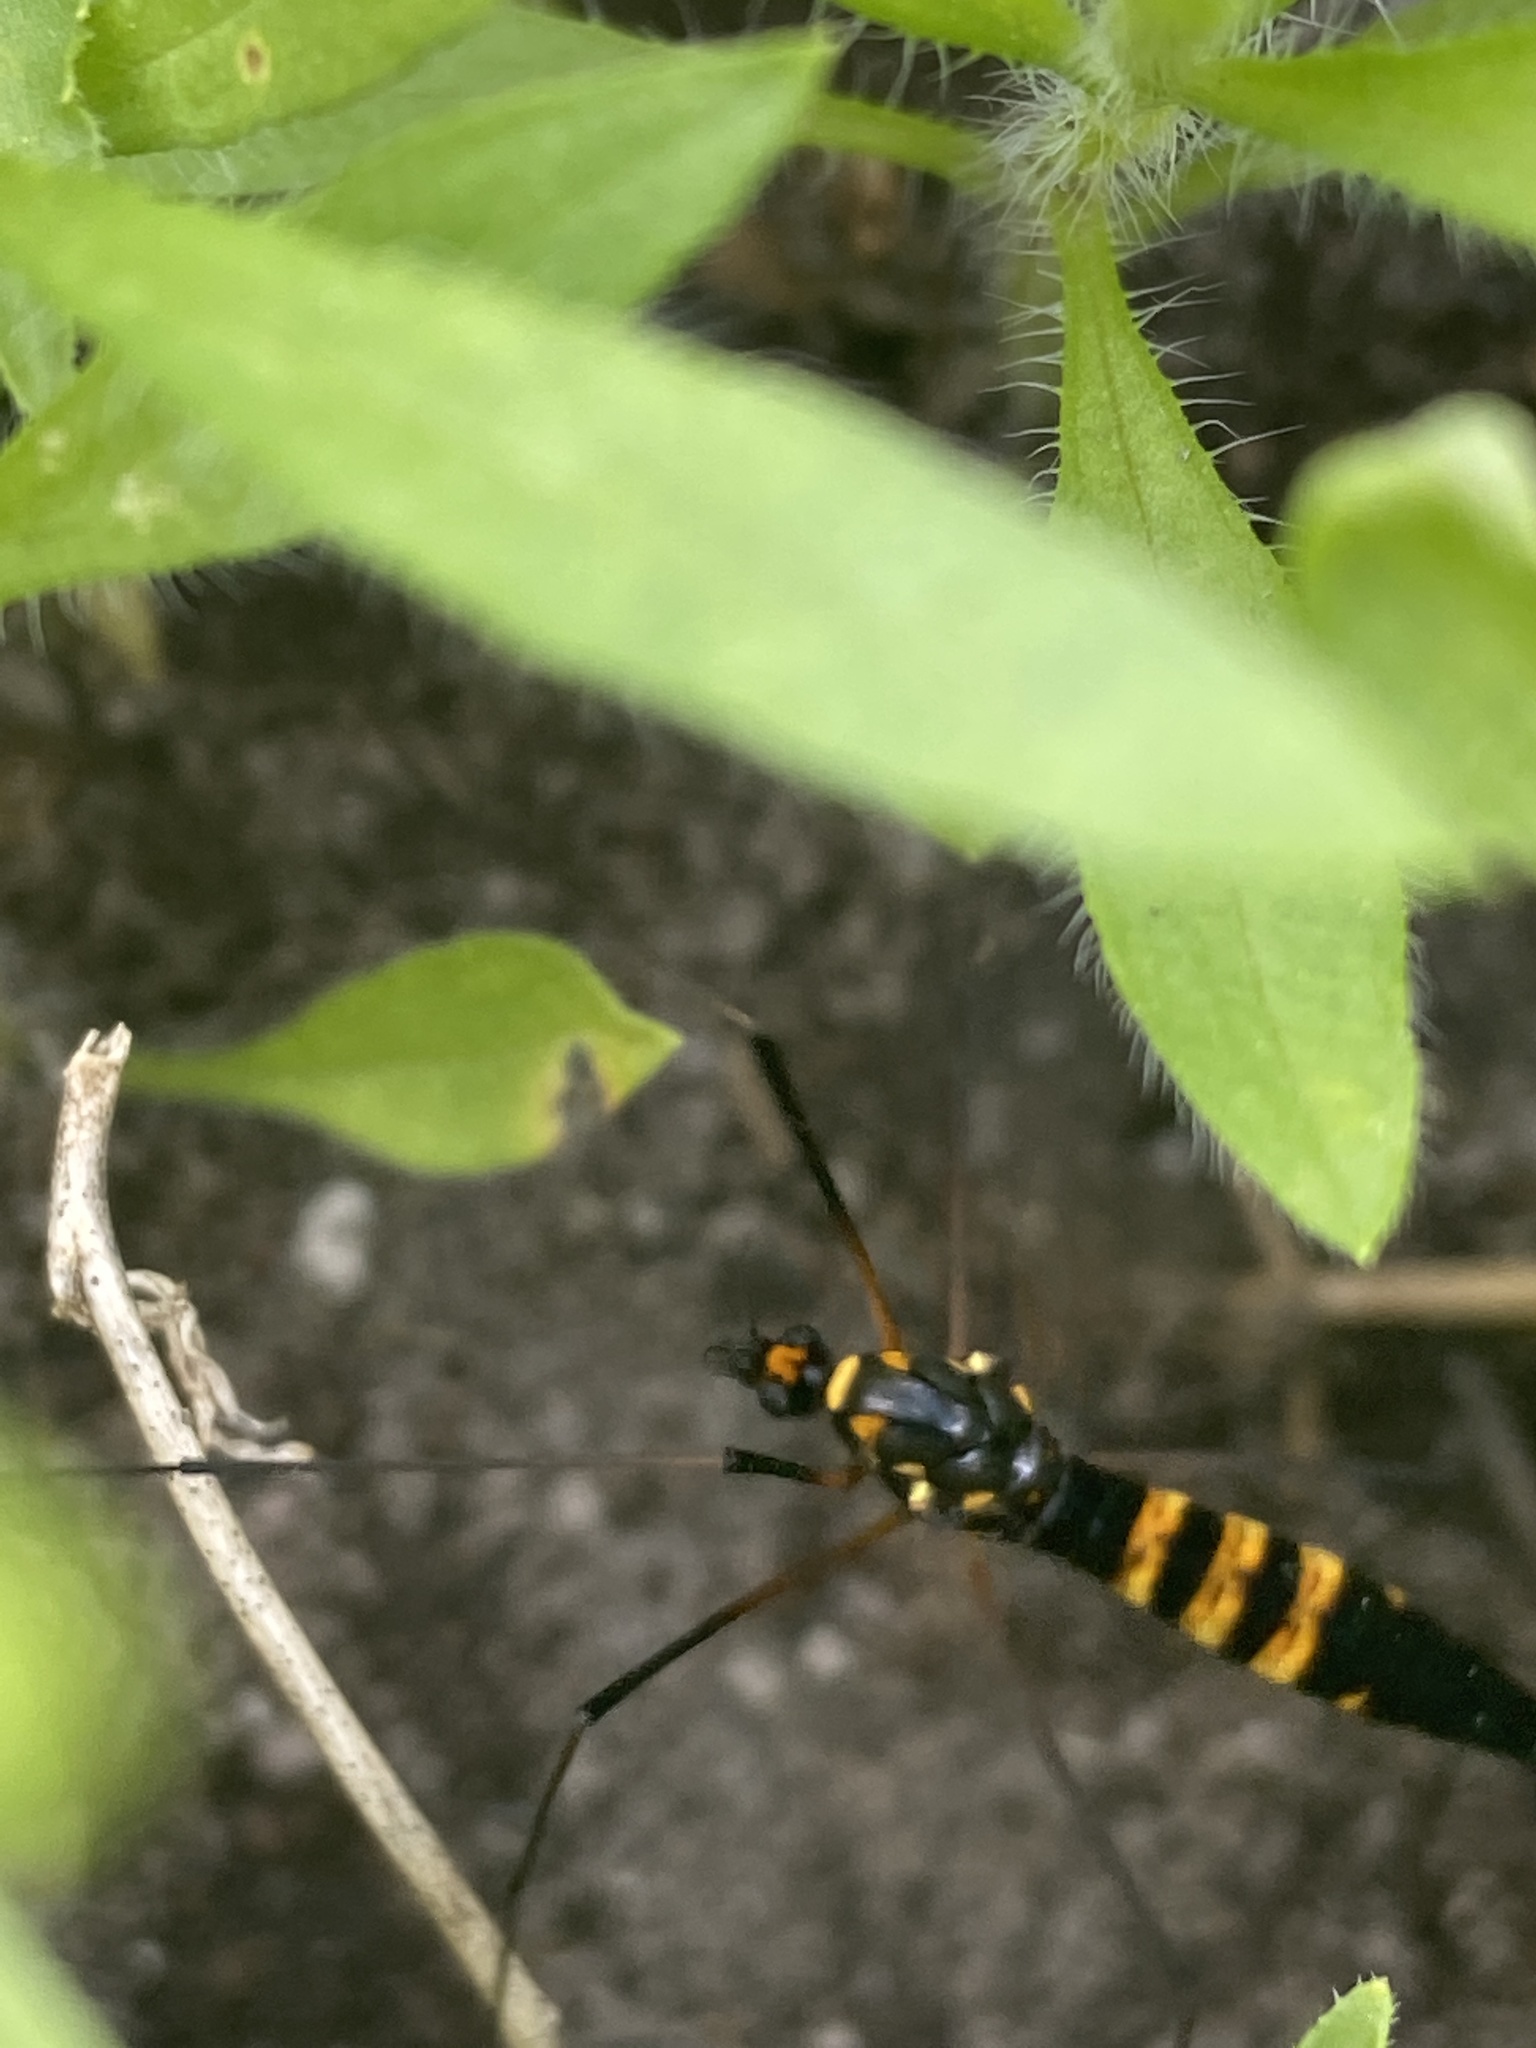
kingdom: Animalia
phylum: Arthropoda
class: Insecta
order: Diptera
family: Tipulidae
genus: Nephrotoma
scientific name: Nephrotoma crocata
